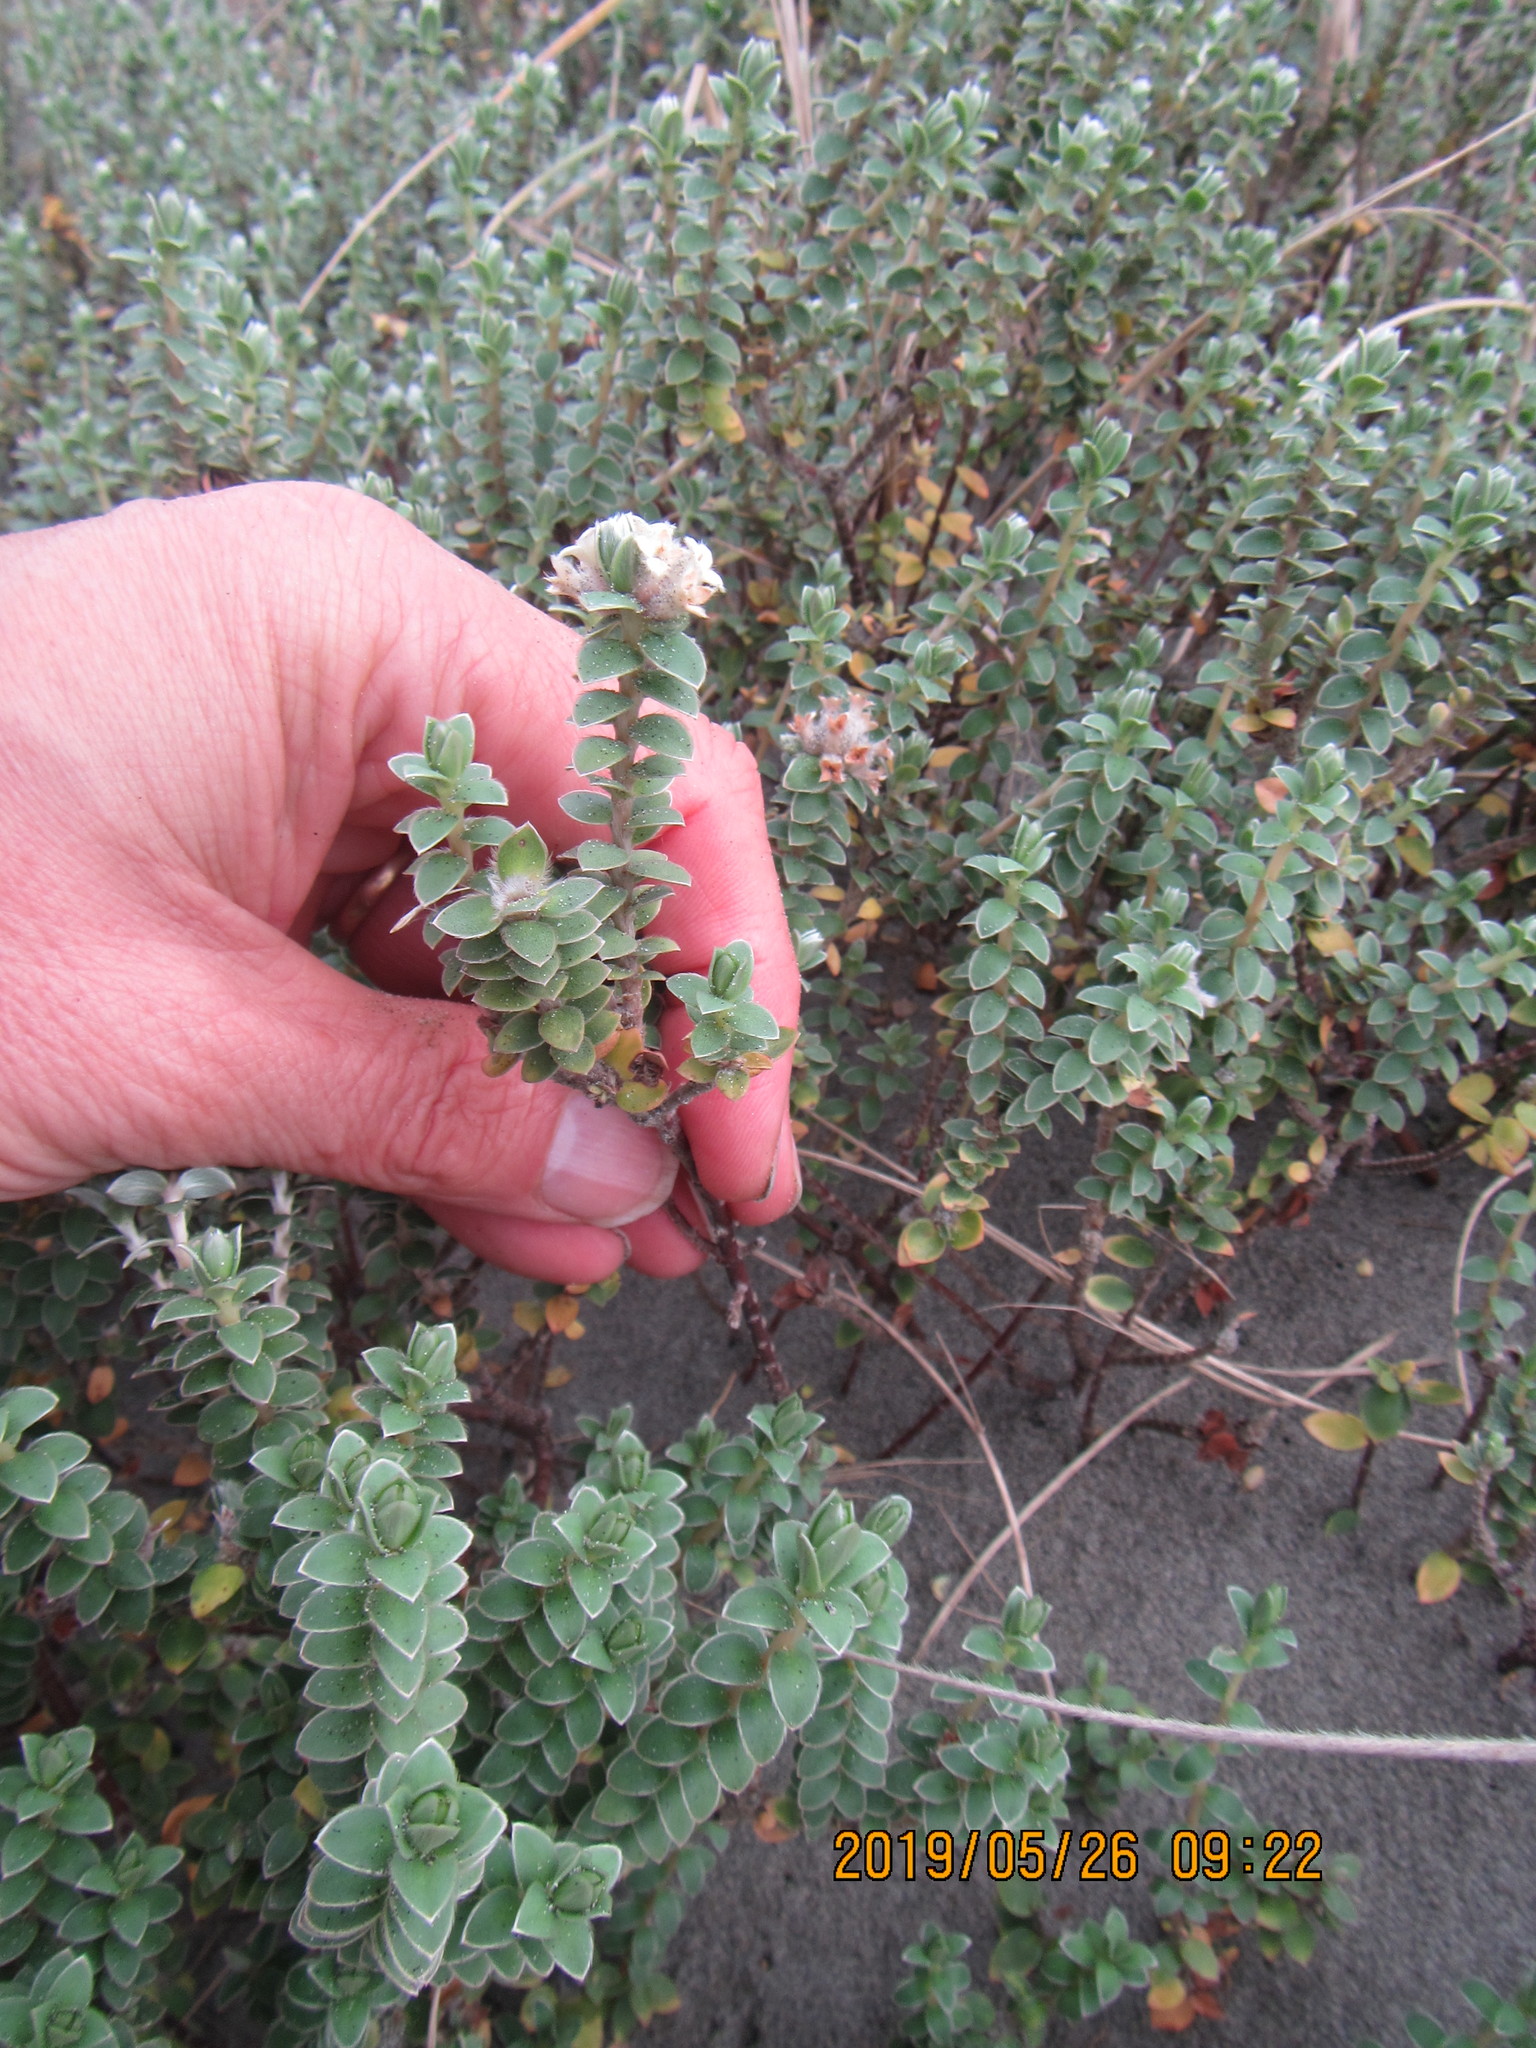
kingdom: Plantae
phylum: Tracheophyta
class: Magnoliopsida
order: Malvales
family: Thymelaeaceae
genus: Pimelea
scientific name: Pimelea villosa
